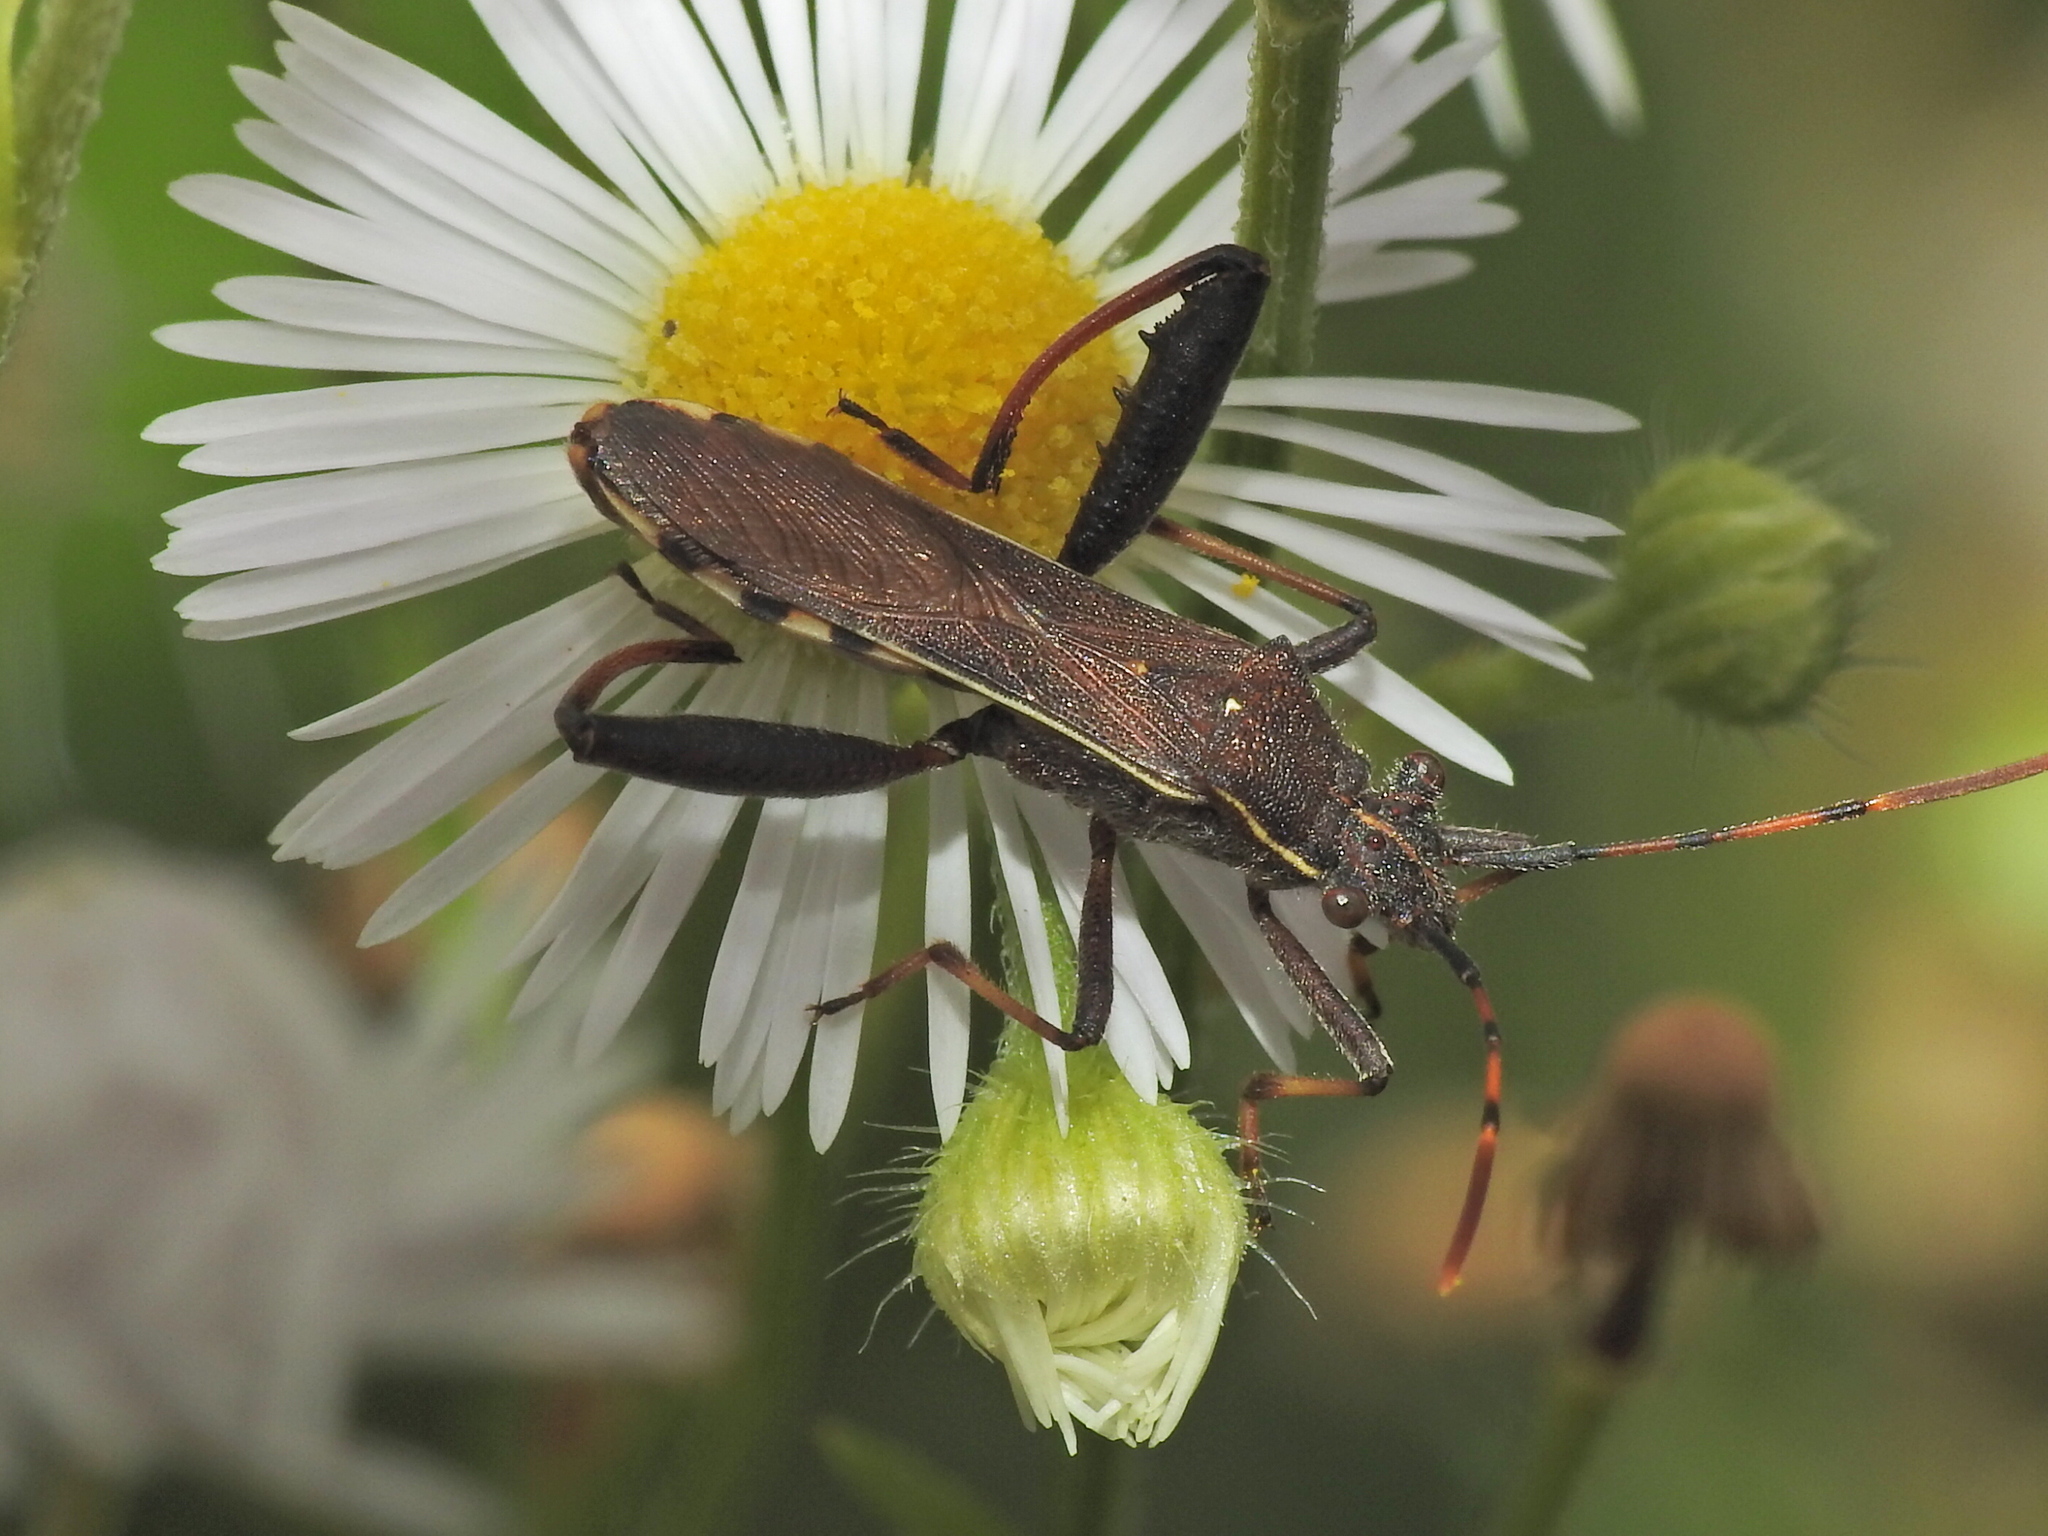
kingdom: Animalia
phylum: Arthropoda
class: Insecta
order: Hemiptera
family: Alydidae
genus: Camptopus
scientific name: Camptopus lateralis
